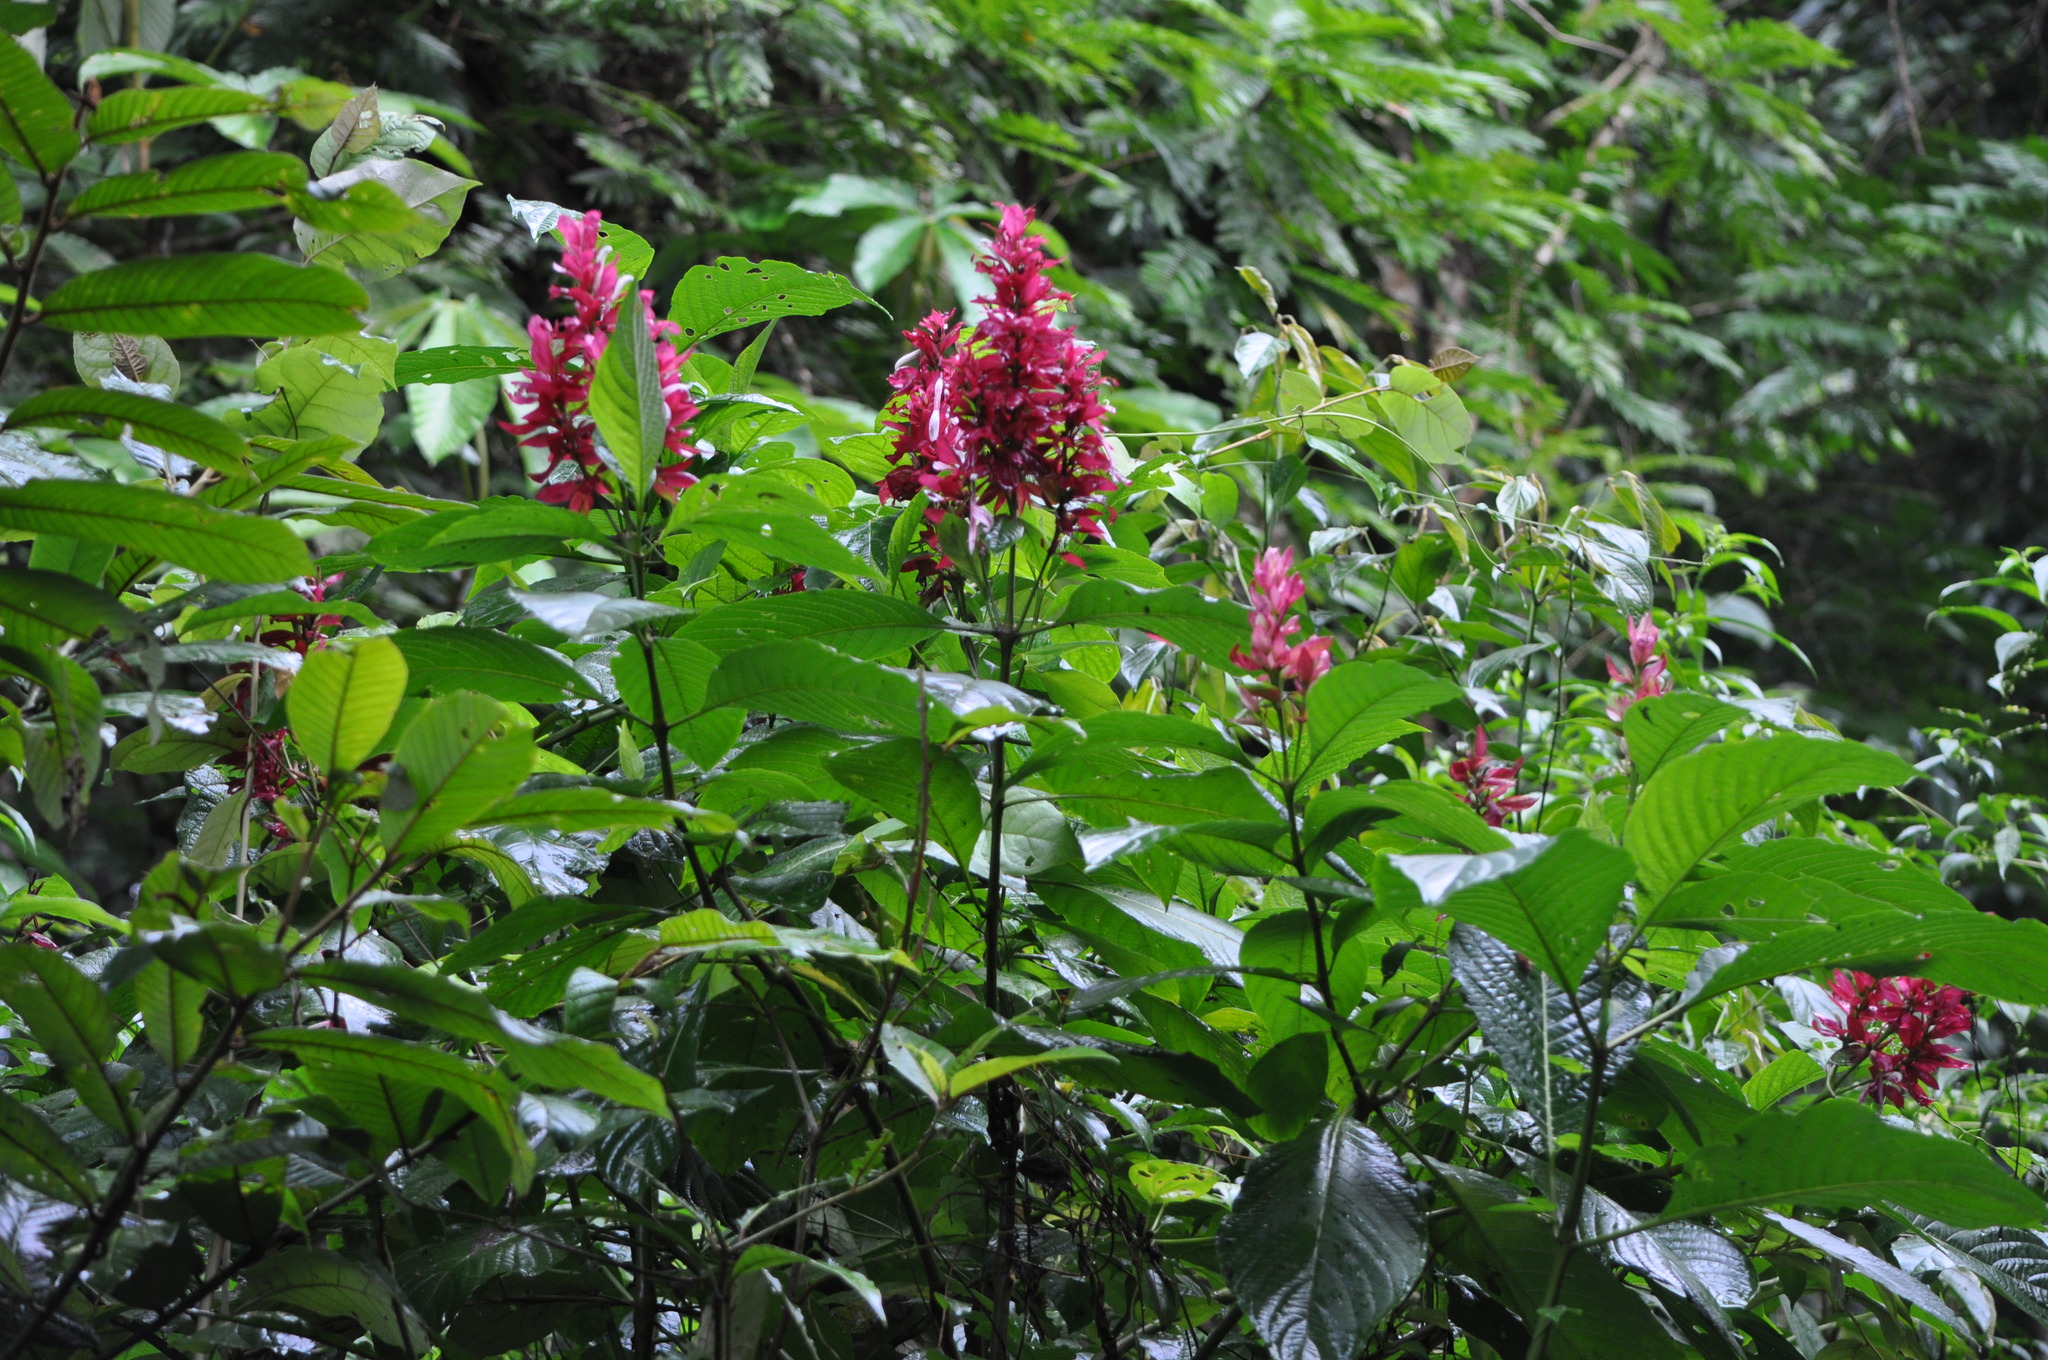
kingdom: Plantae
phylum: Tracheophyta
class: Magnoliopsida
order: Lamiales
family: Acanthaceae
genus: Megaskepasma
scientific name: Megaskepasma erythrochlamys
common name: Brazilian red-cloak
